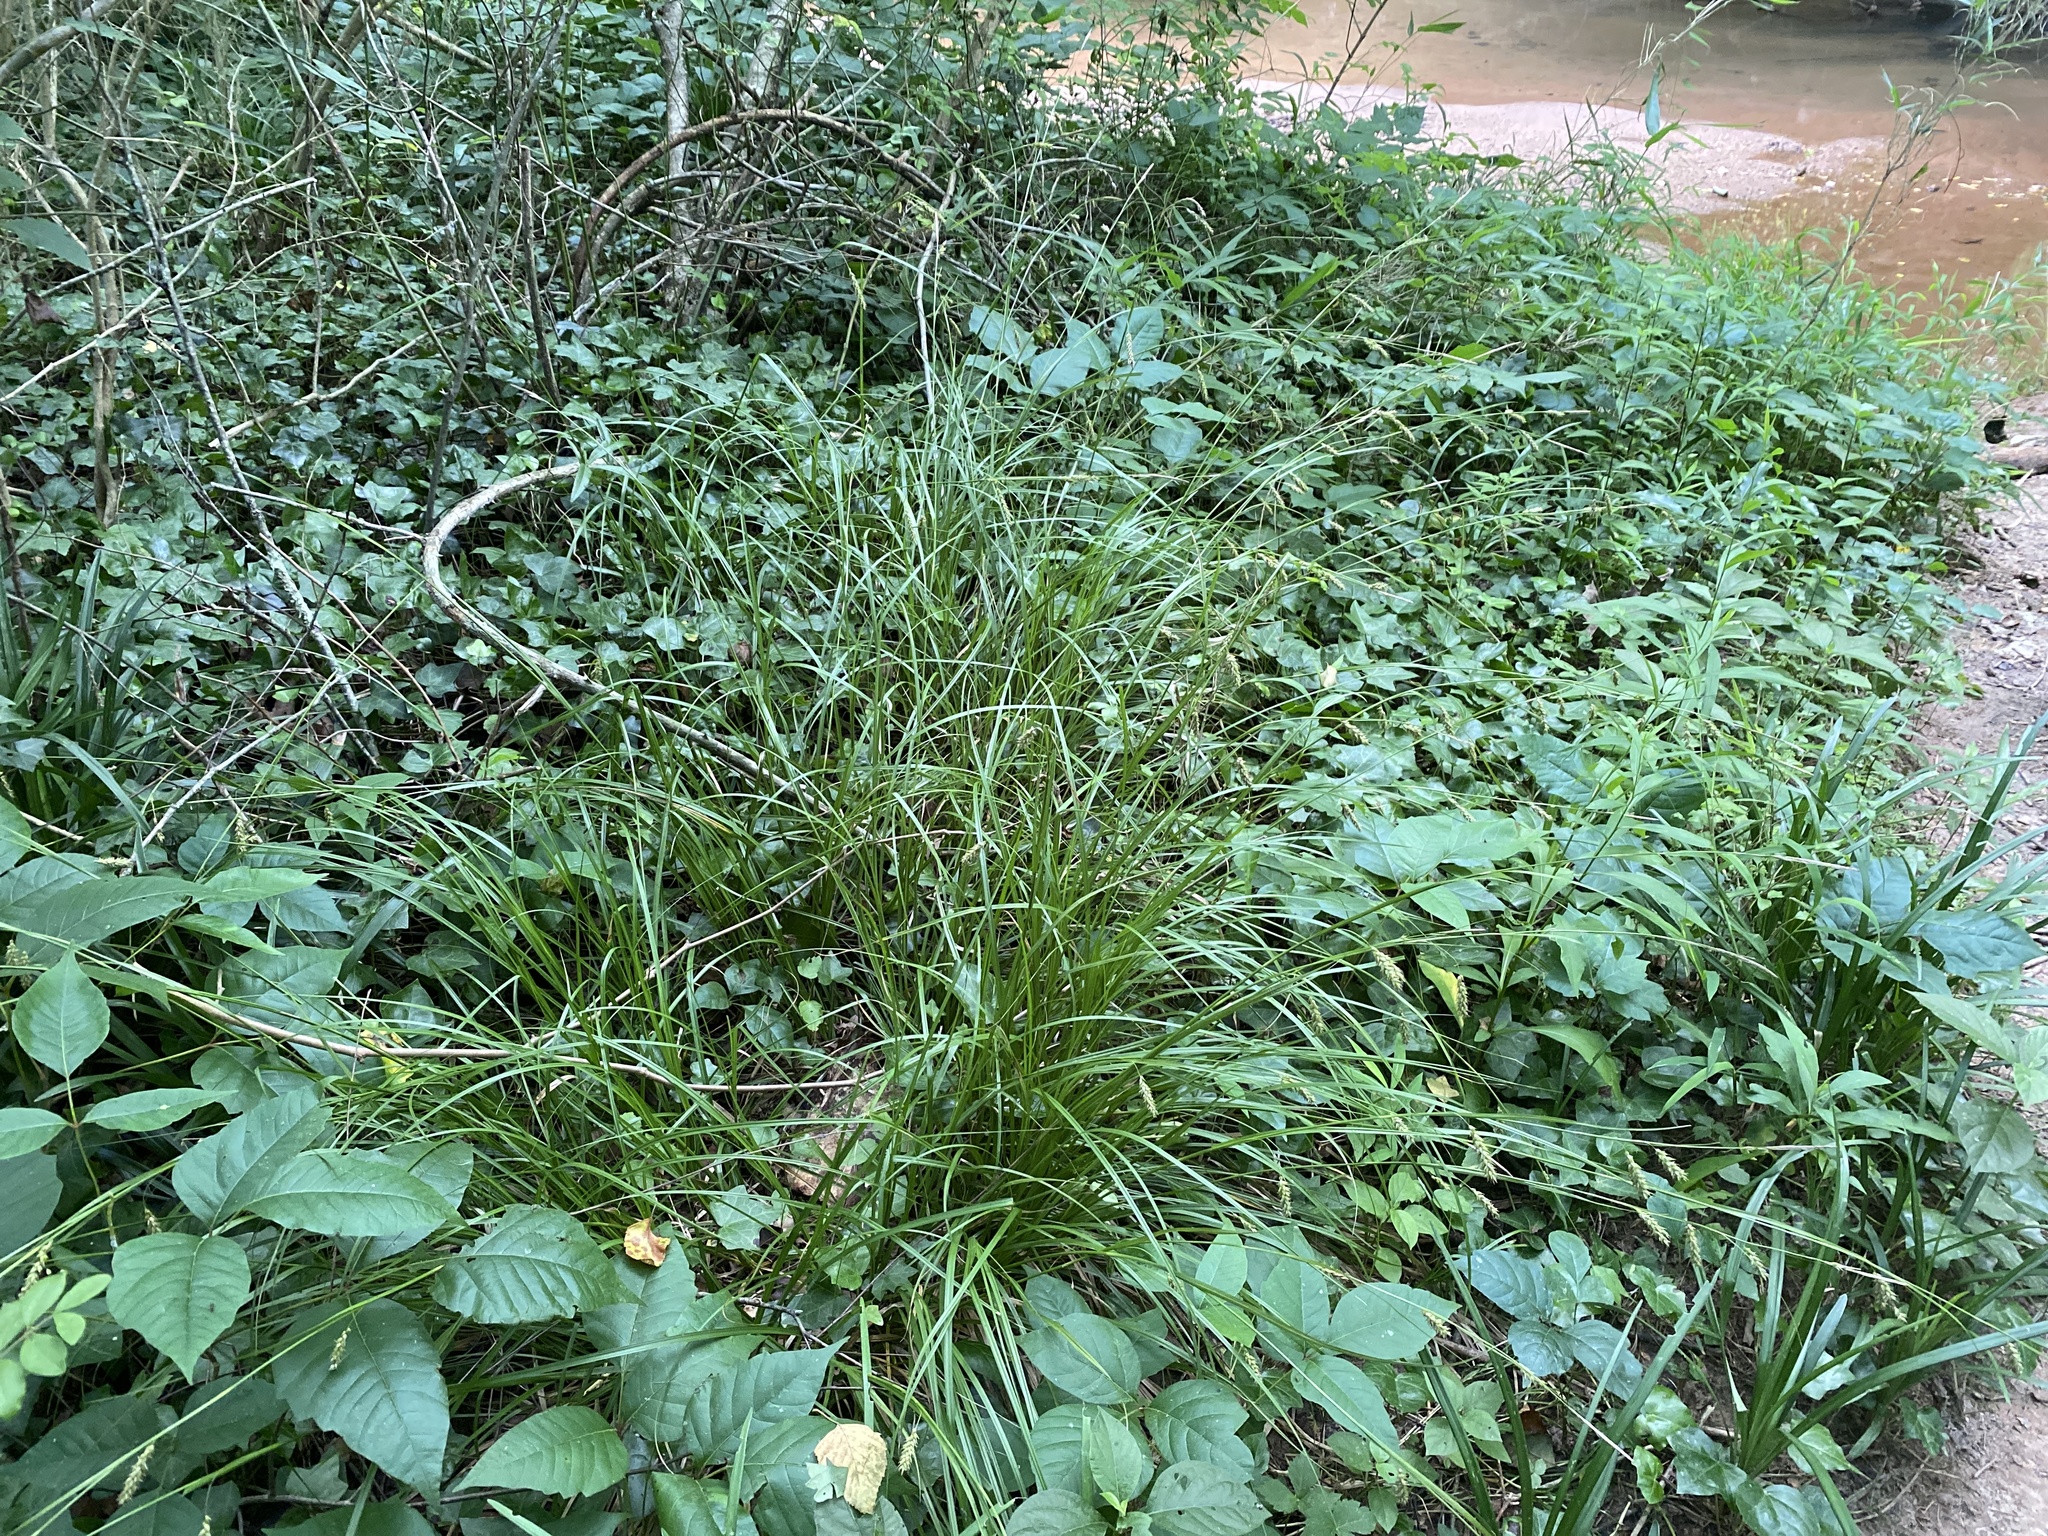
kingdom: Plantae
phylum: Tracheophyta
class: Liliopsida
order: Poales
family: Cyperaceae
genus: Carex
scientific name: Carex cherokeensis
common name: Cherokee sedge
